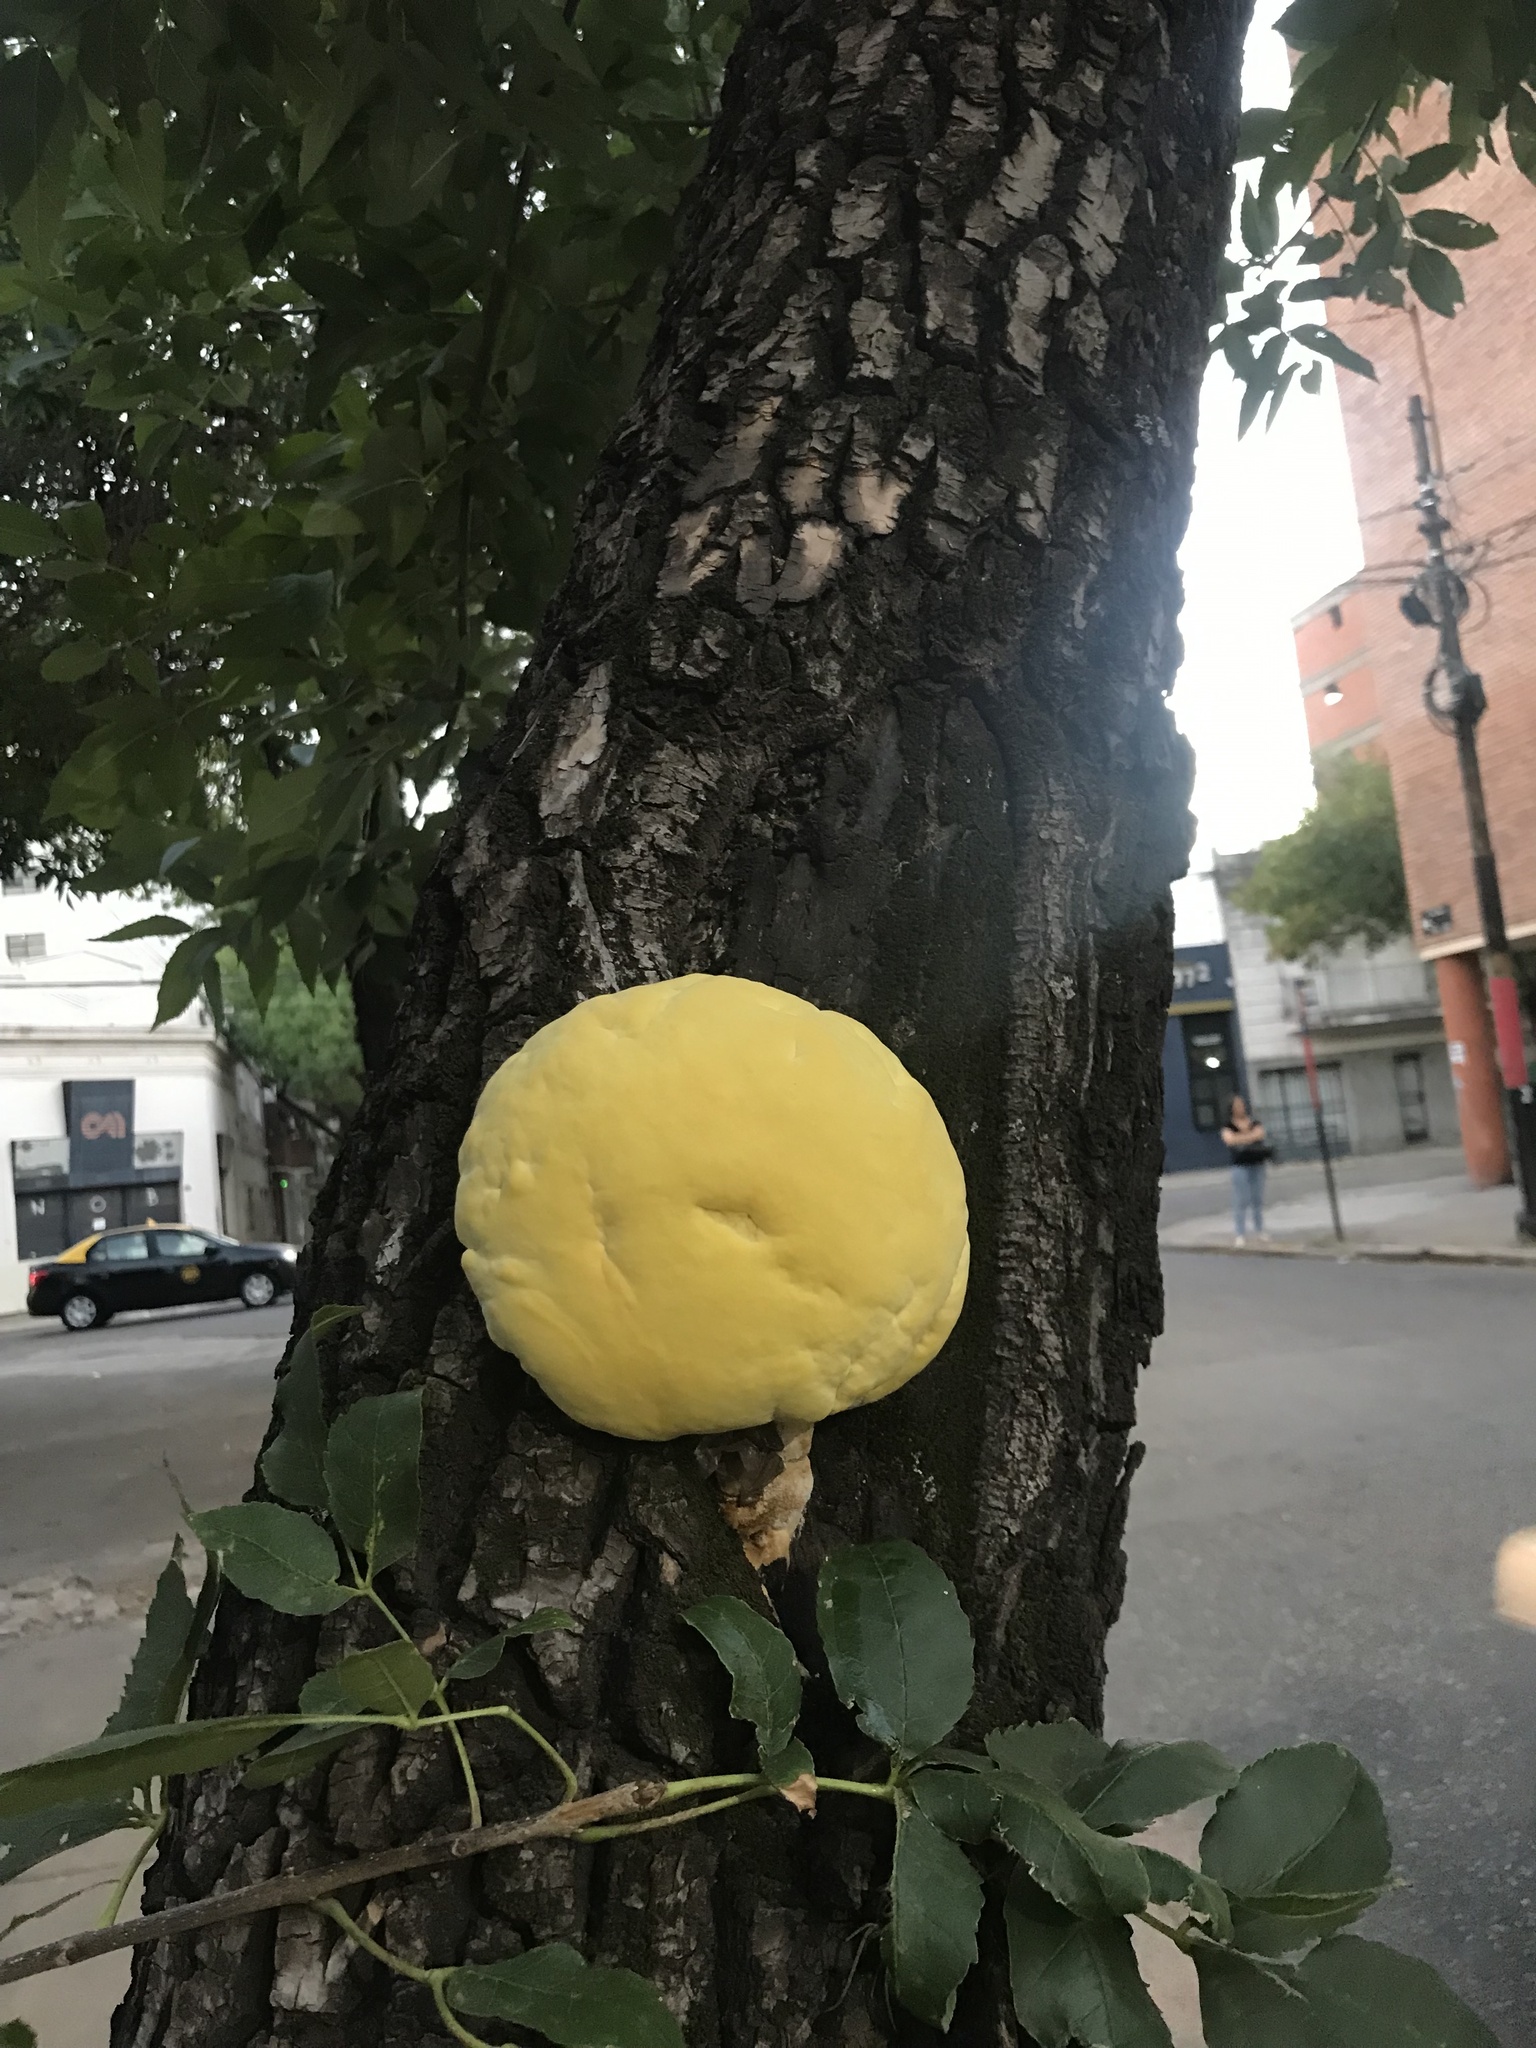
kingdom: Fungi
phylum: Basidiomycota
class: Agaricomycetes
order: Polyporales
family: Laetiporaceae
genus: Laetiporus
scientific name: Laetiporus sulphureus
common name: Chicken of the woods
